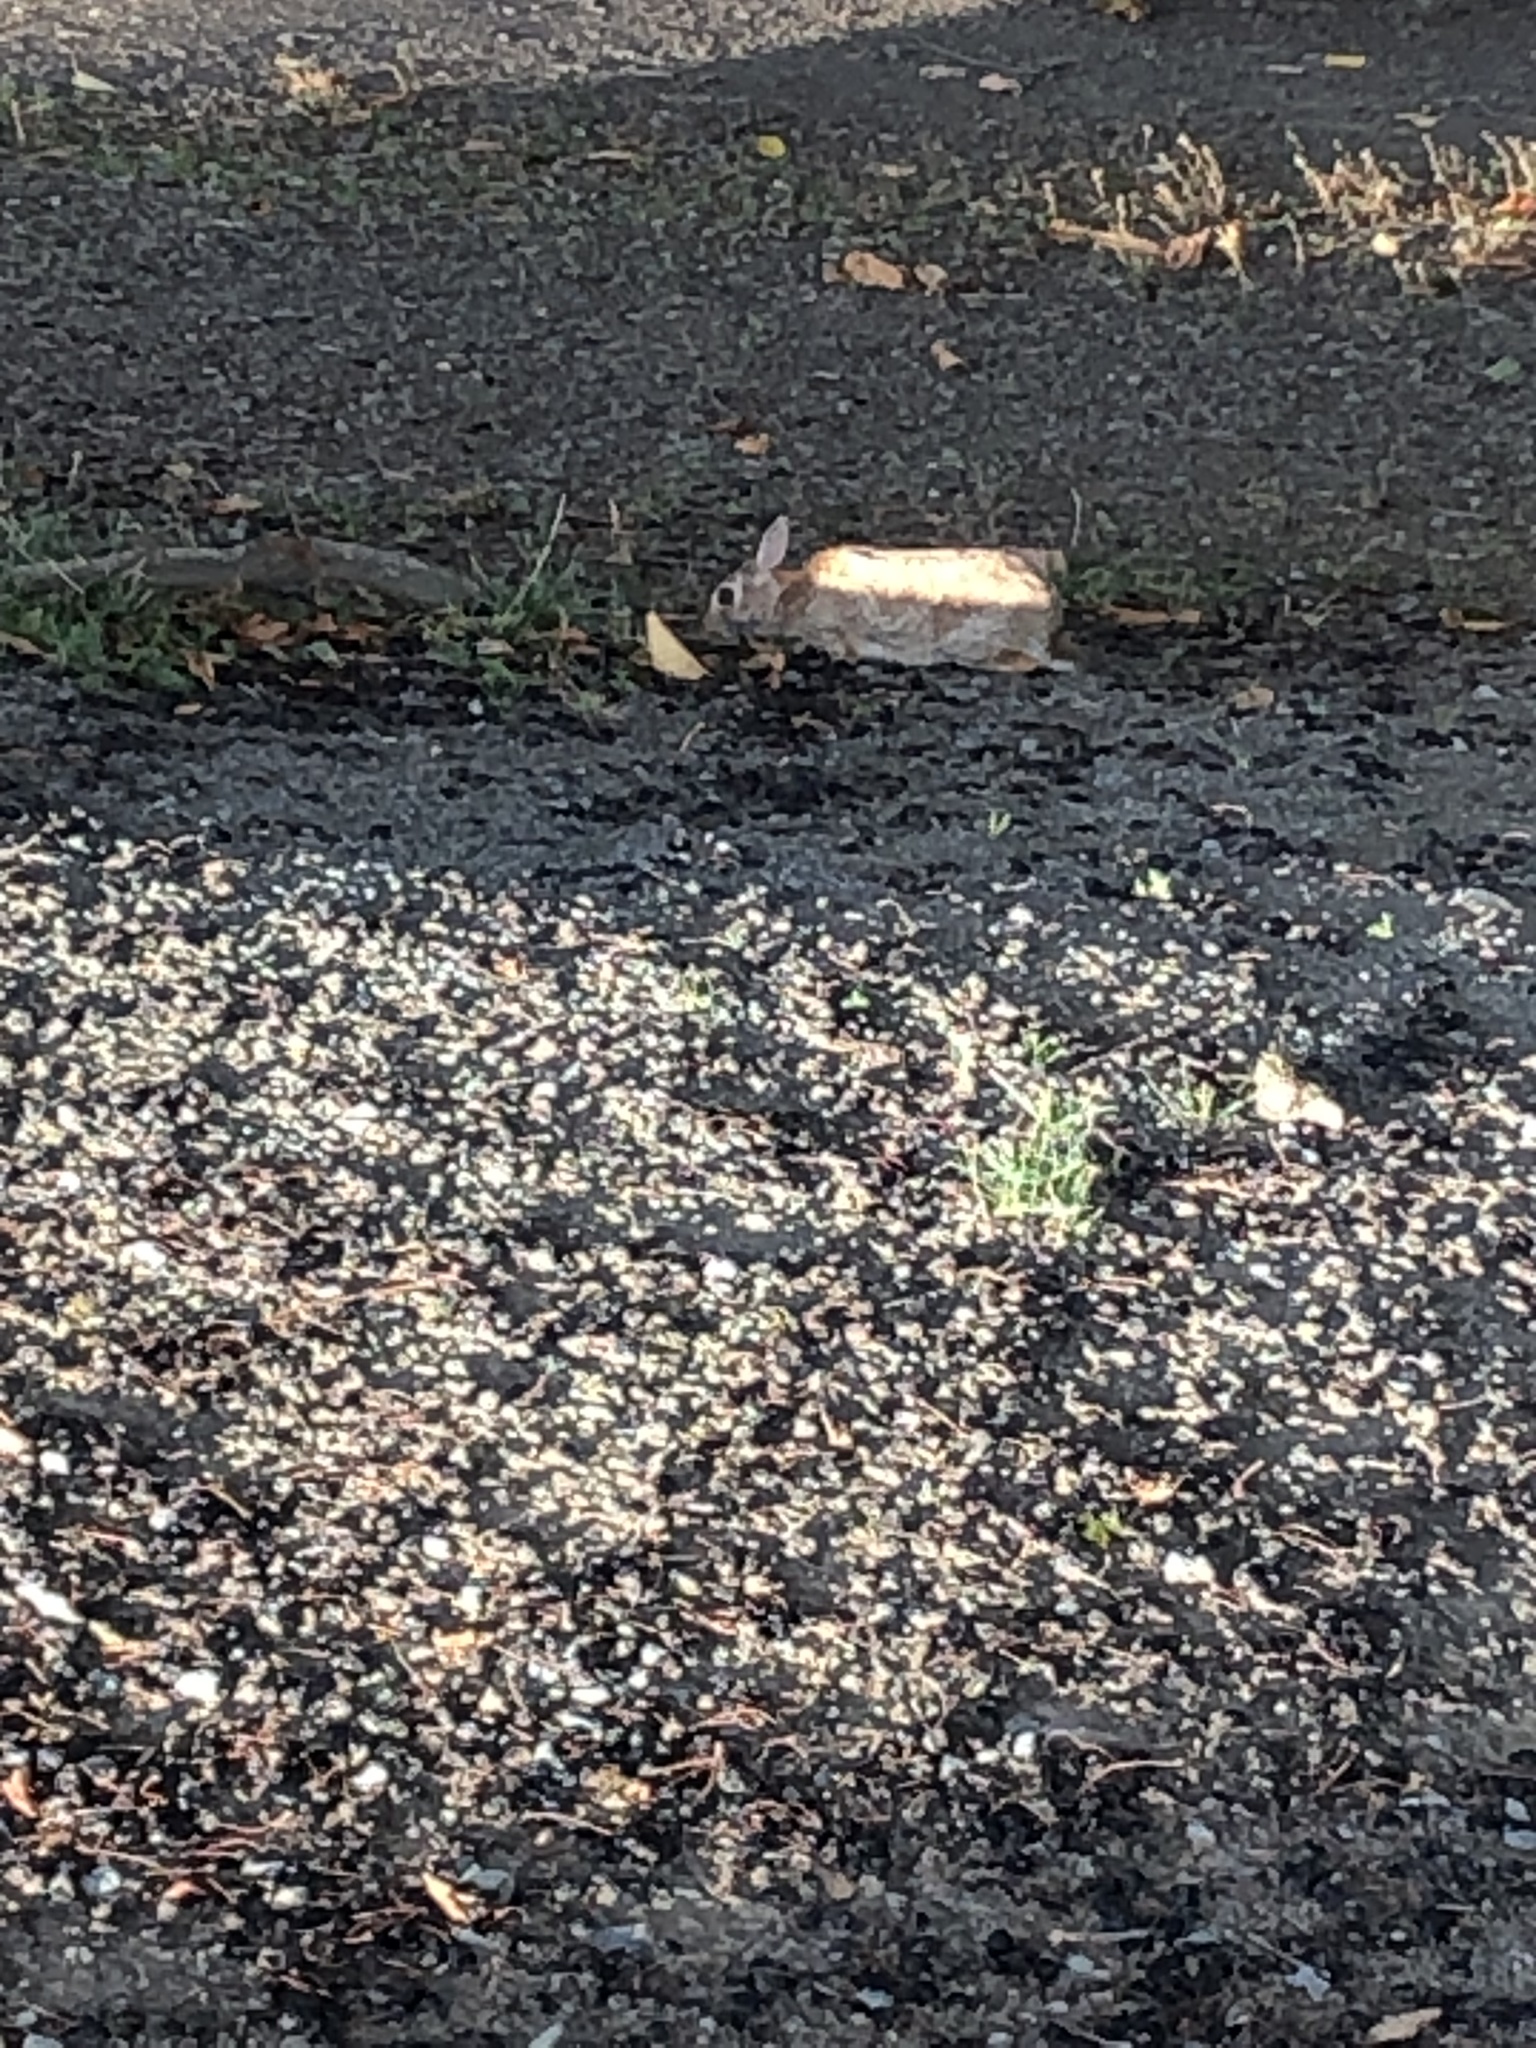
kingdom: Animalia
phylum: Chordata
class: Mammalia
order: Lagomorpha
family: Leporidae
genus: Sylvilagus
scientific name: Sylvilagus floridanus
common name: Eastern cottontail
